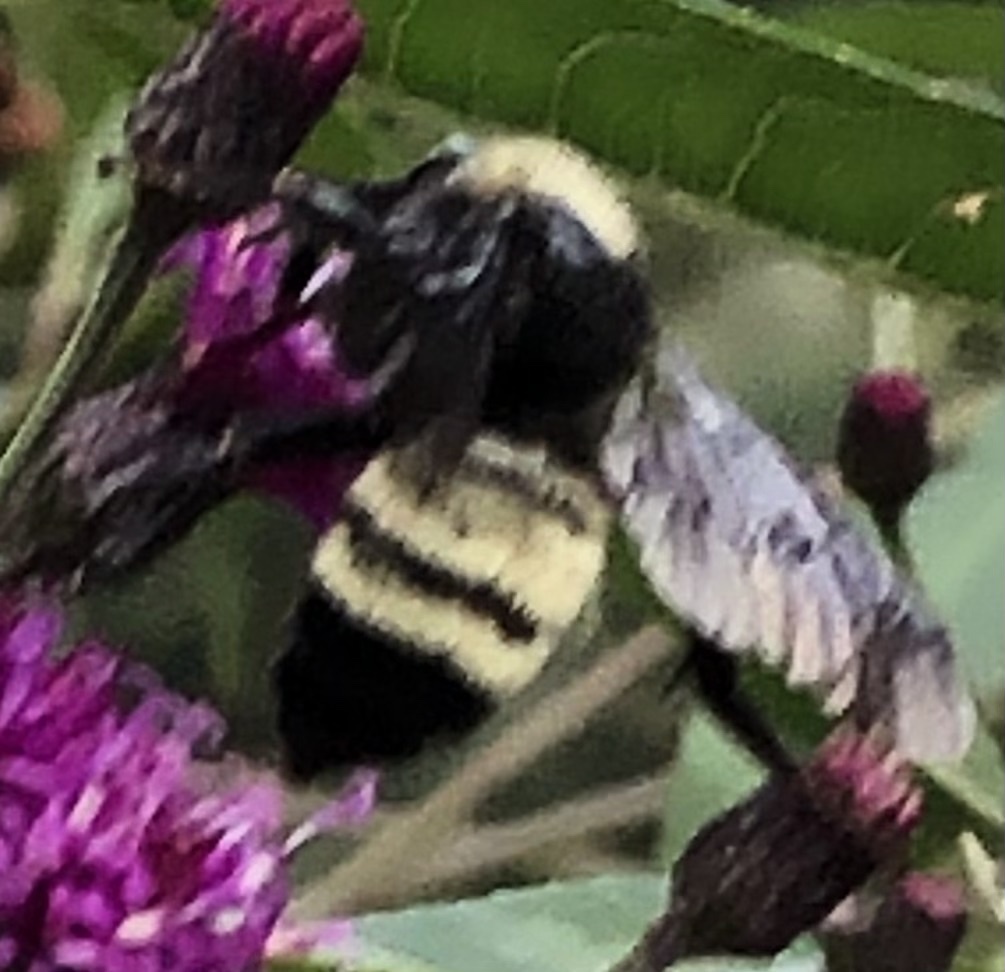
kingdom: Animalia
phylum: Arthropoda
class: Insecta
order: Hymenoptera
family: Apidae
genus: Bombus
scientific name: Bombus pensylvanicus
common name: Bumble bee
